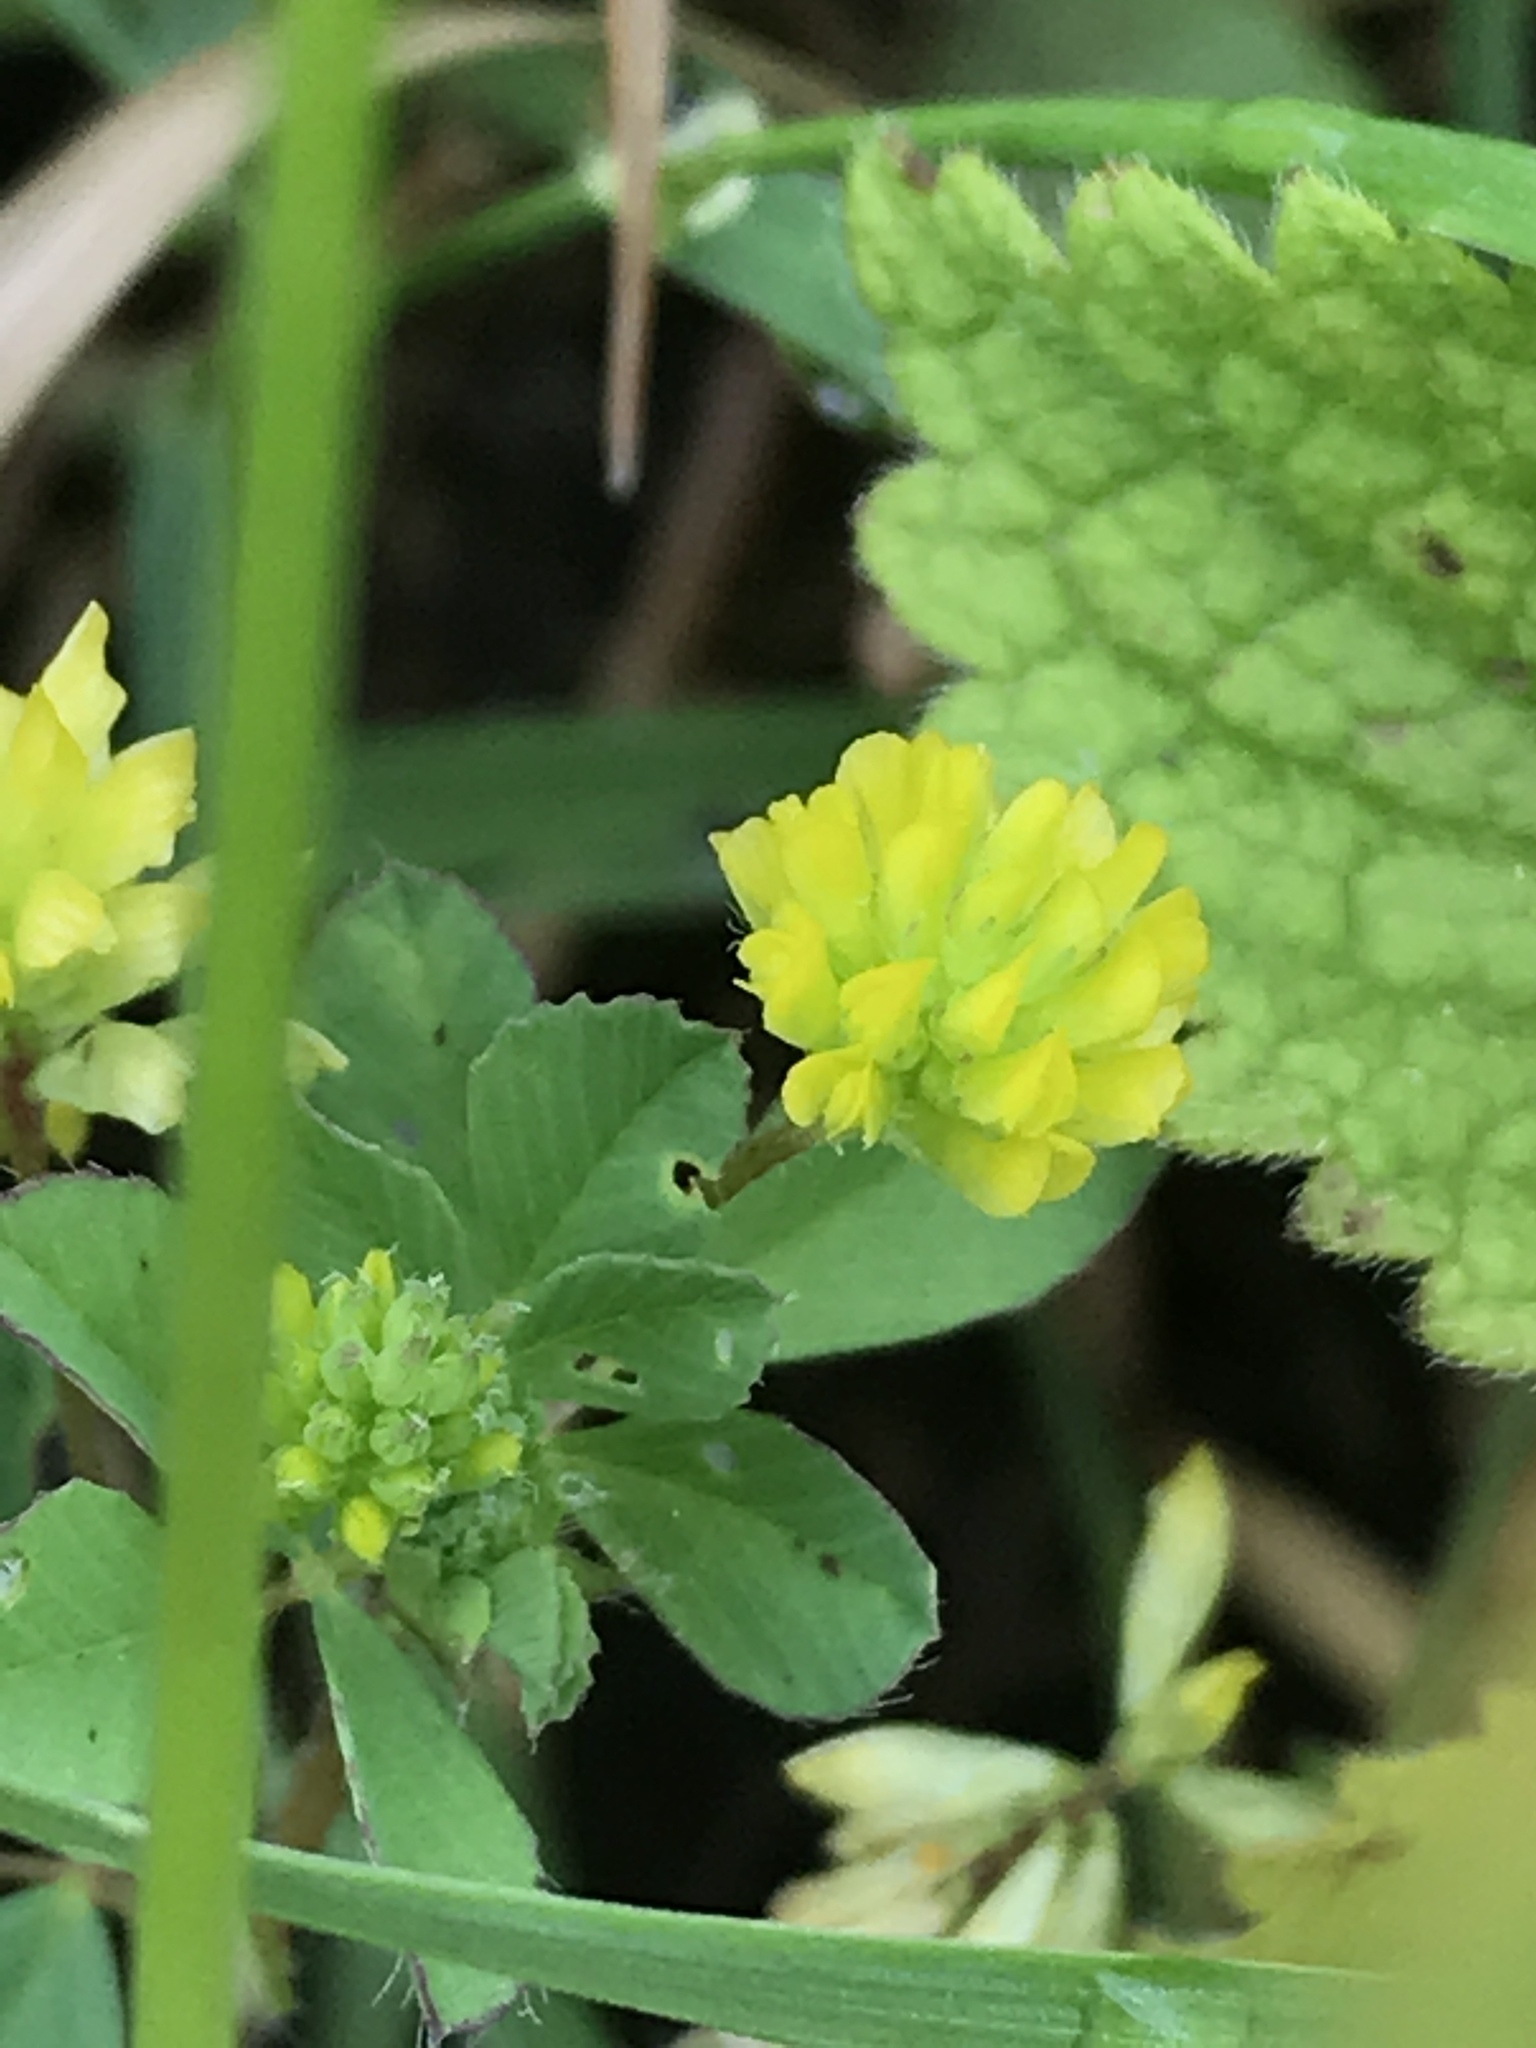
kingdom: Plantae
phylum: Tracheophyta
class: Magnoliopsida
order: Fabales
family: Fabaceae
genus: Trifolium
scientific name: Trifolium dubium
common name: Suckling clover
